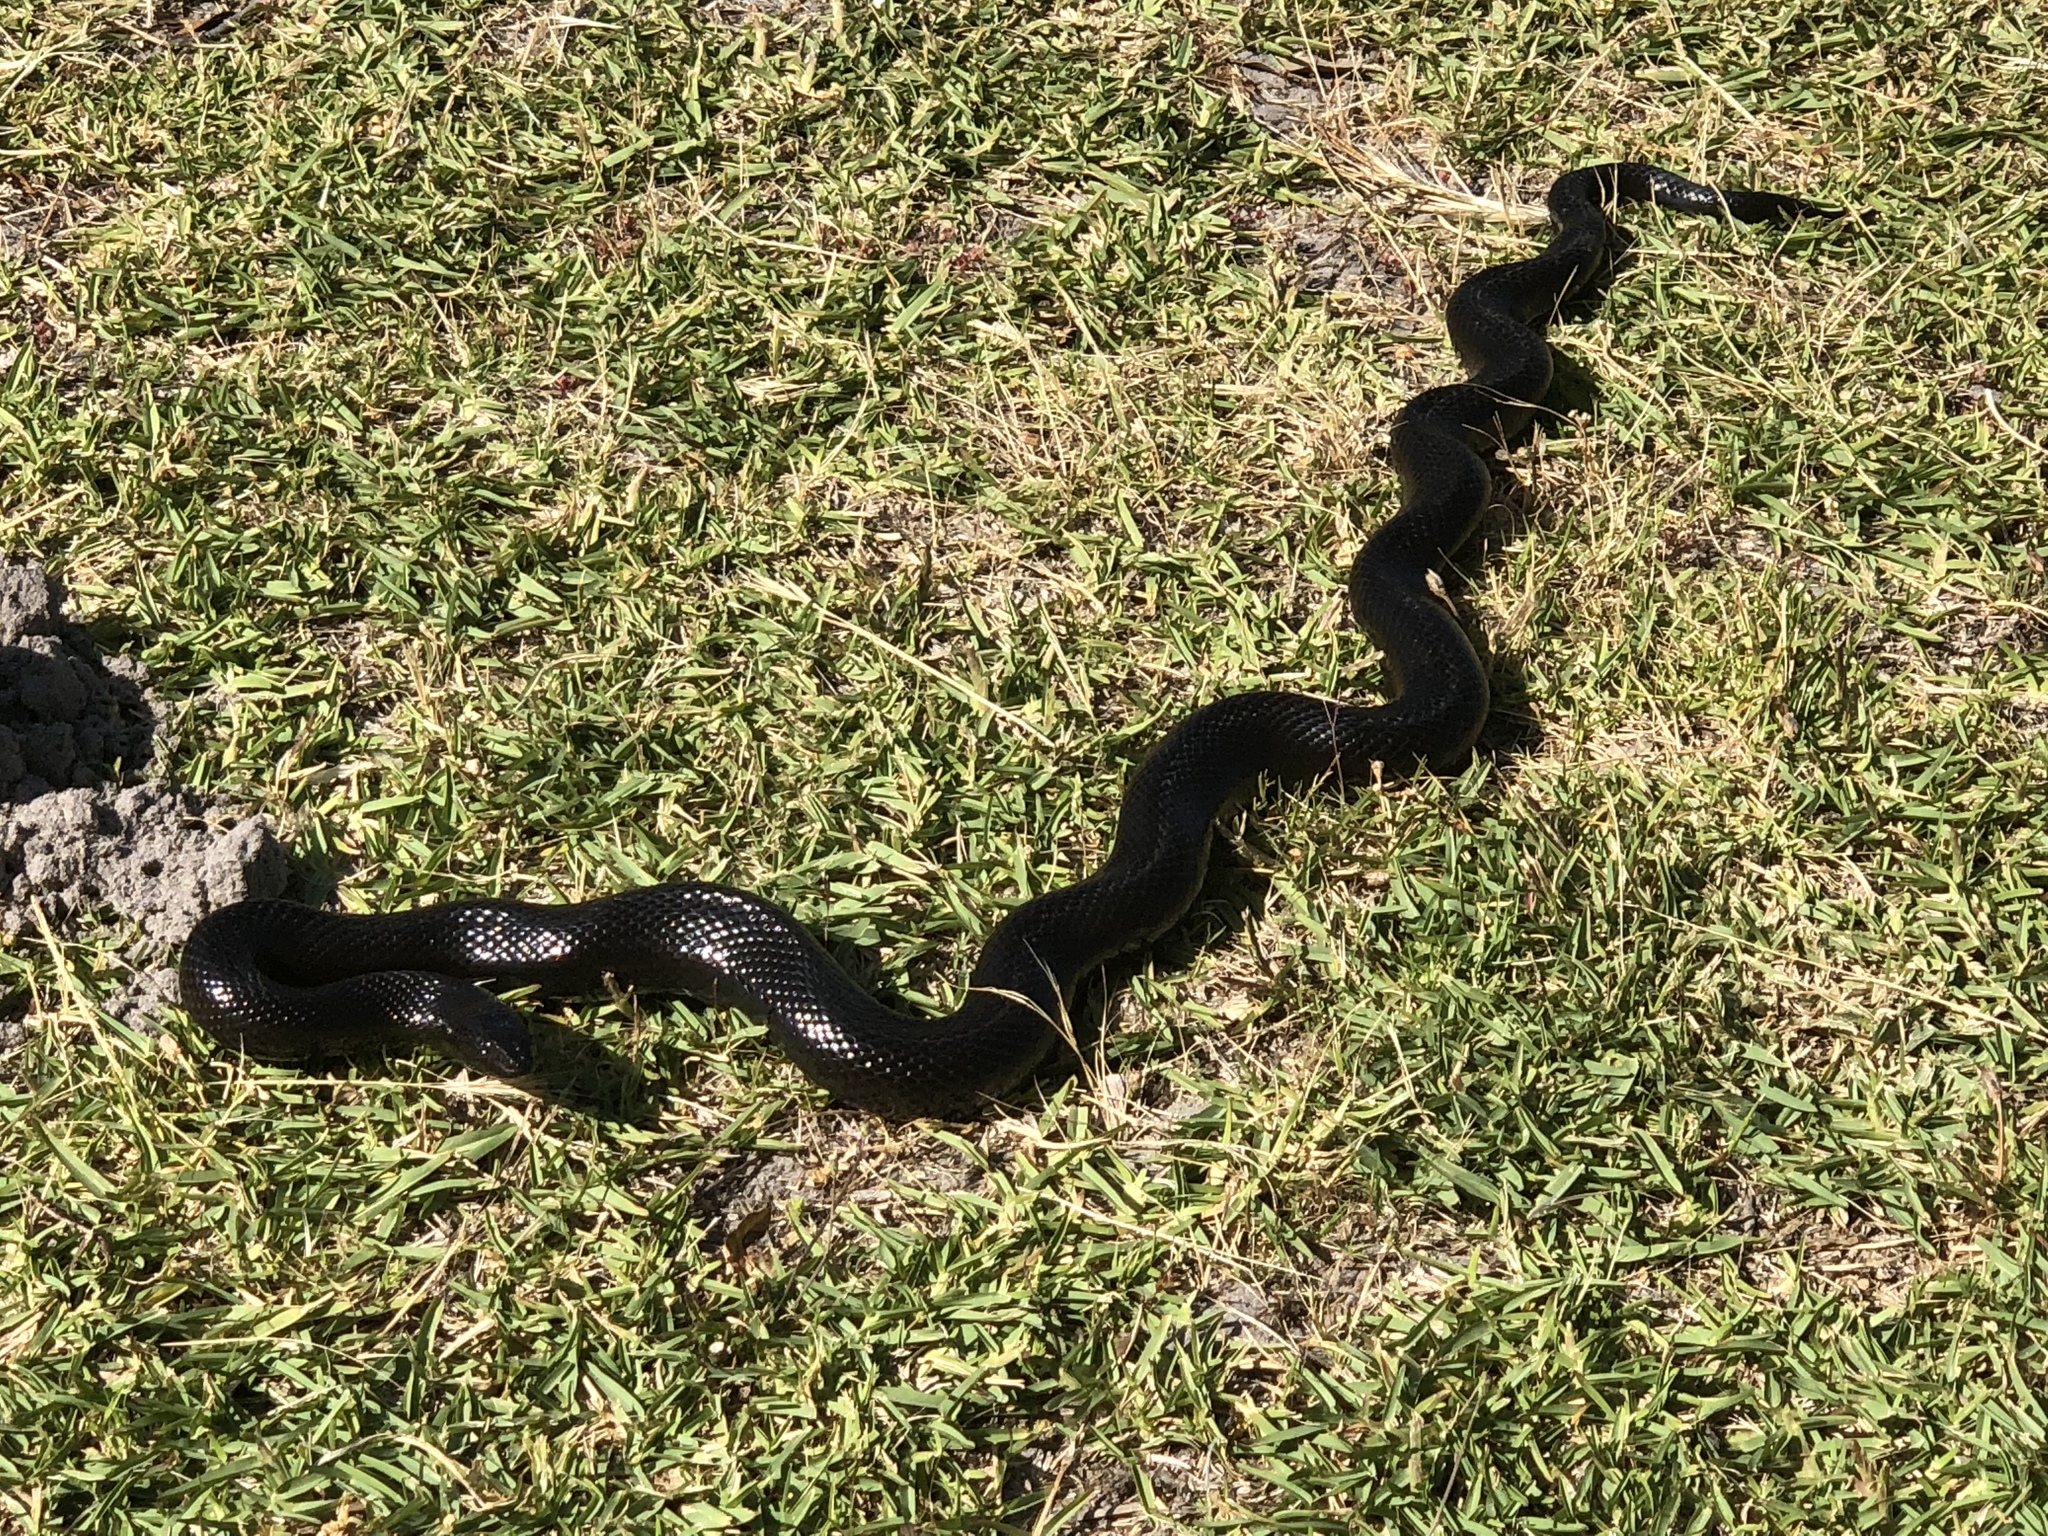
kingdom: Animalia
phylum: Chordata
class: Squamata
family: Pseudaspididae
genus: Pseudaspis
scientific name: Pseudaspis cana
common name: Mole snake
